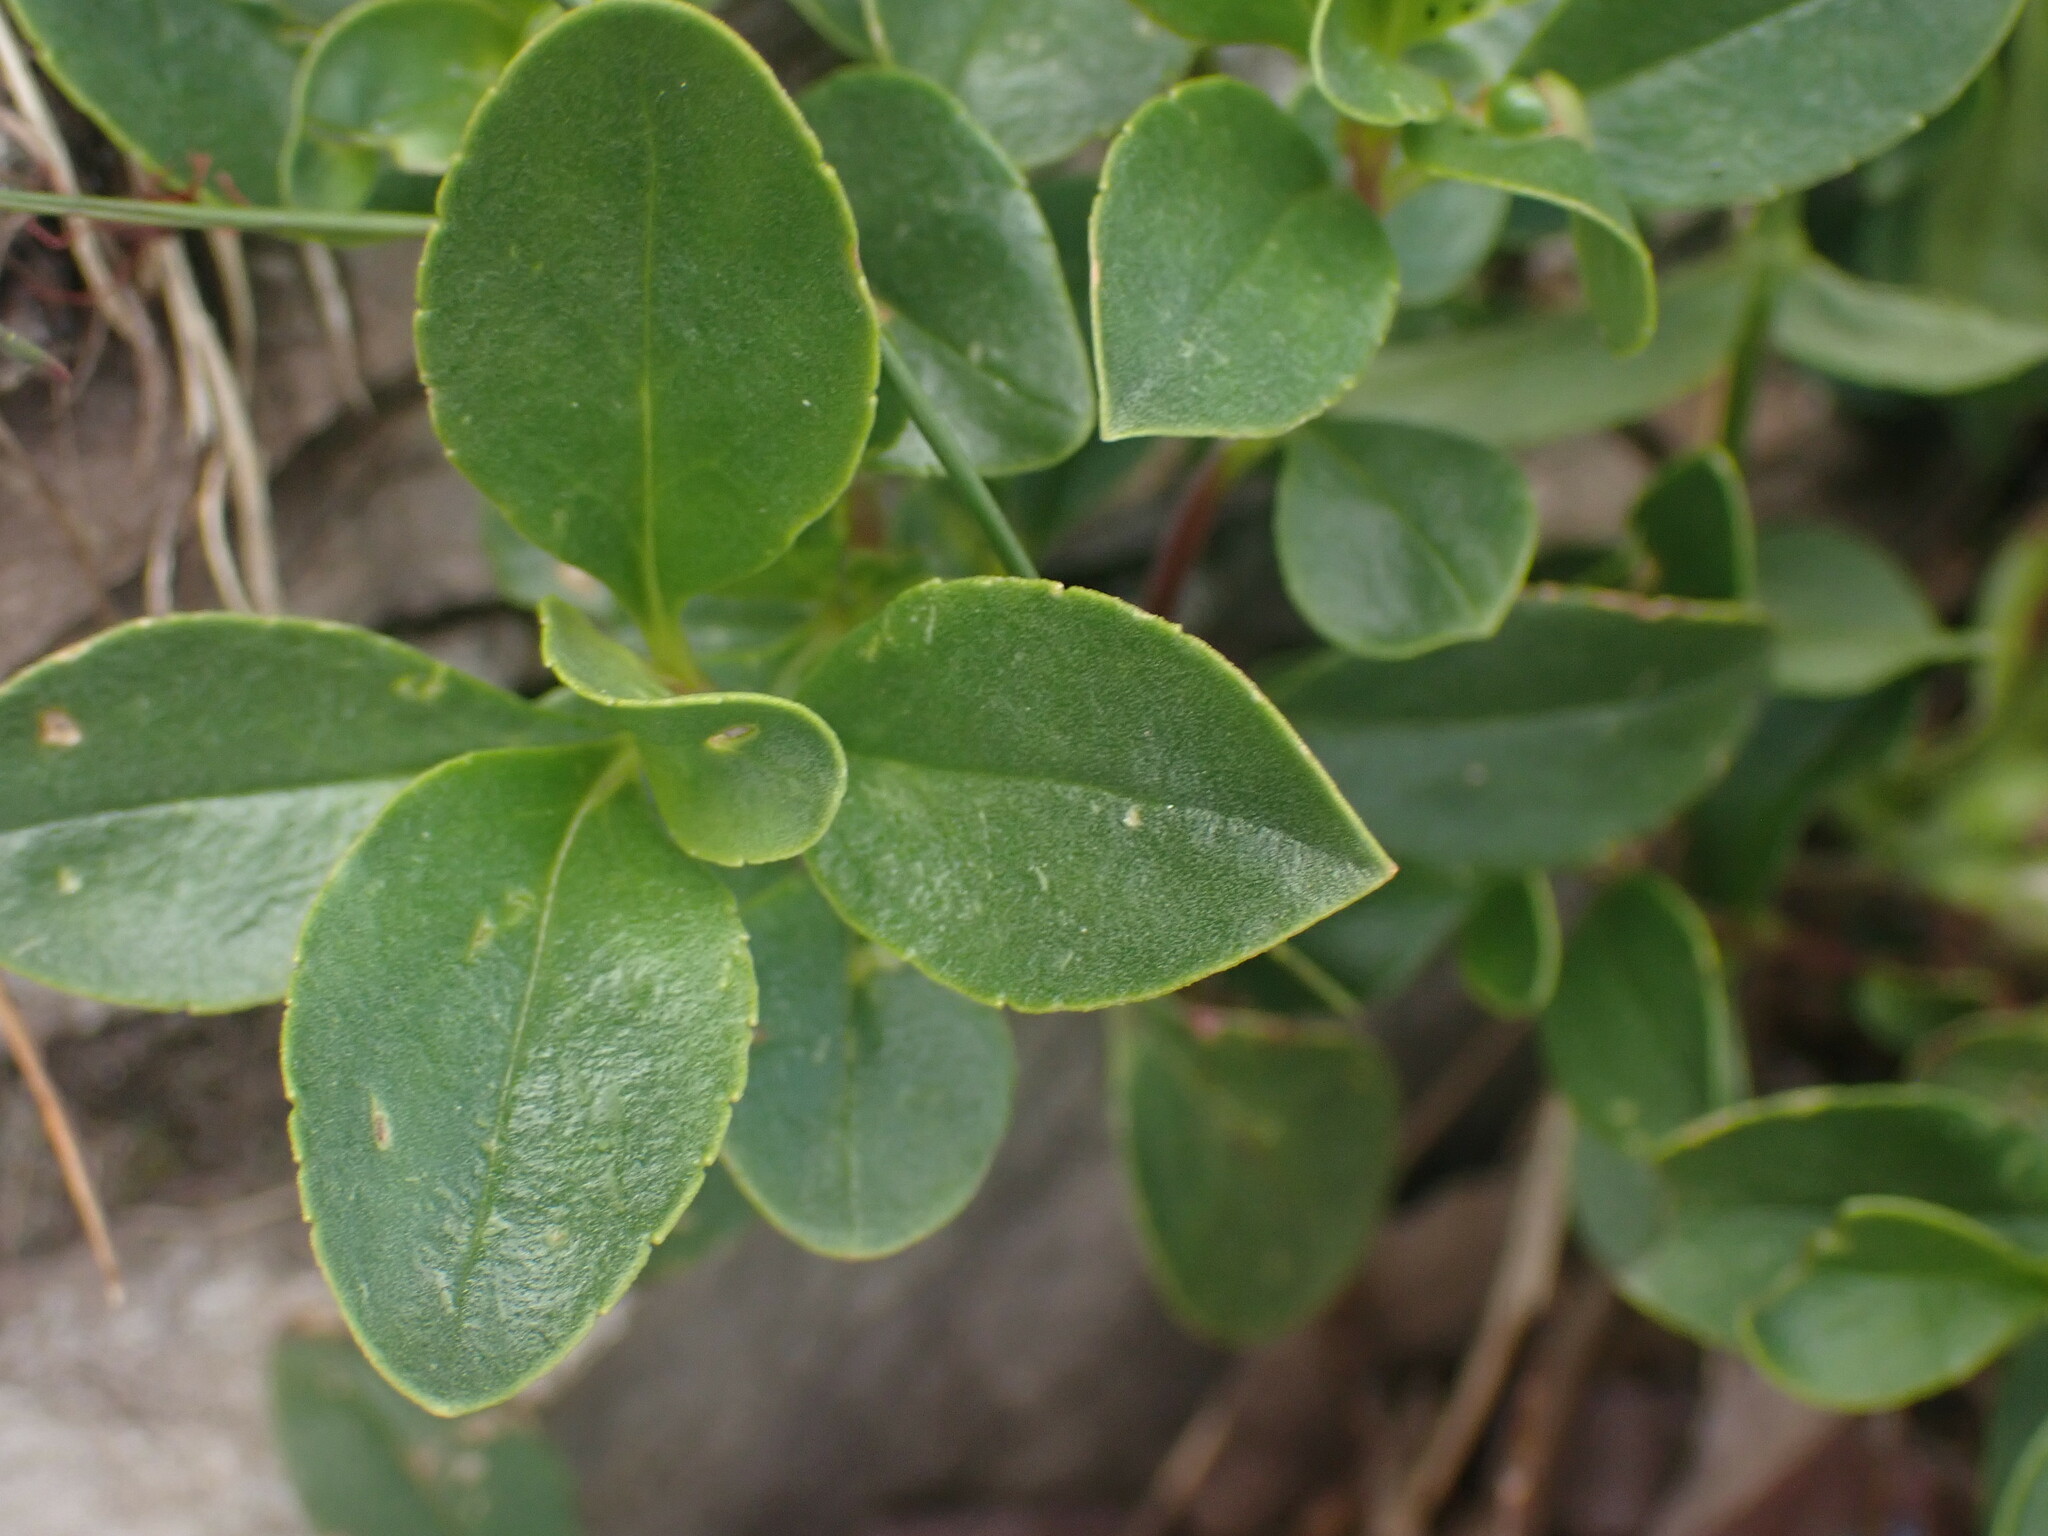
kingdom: Plantae
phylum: Tracheophyta
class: Magnoliopsida
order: Lamiales
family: Plantaginaceae
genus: Penstemon
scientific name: Penstemon ellipticus
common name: Alpine beardtongue
